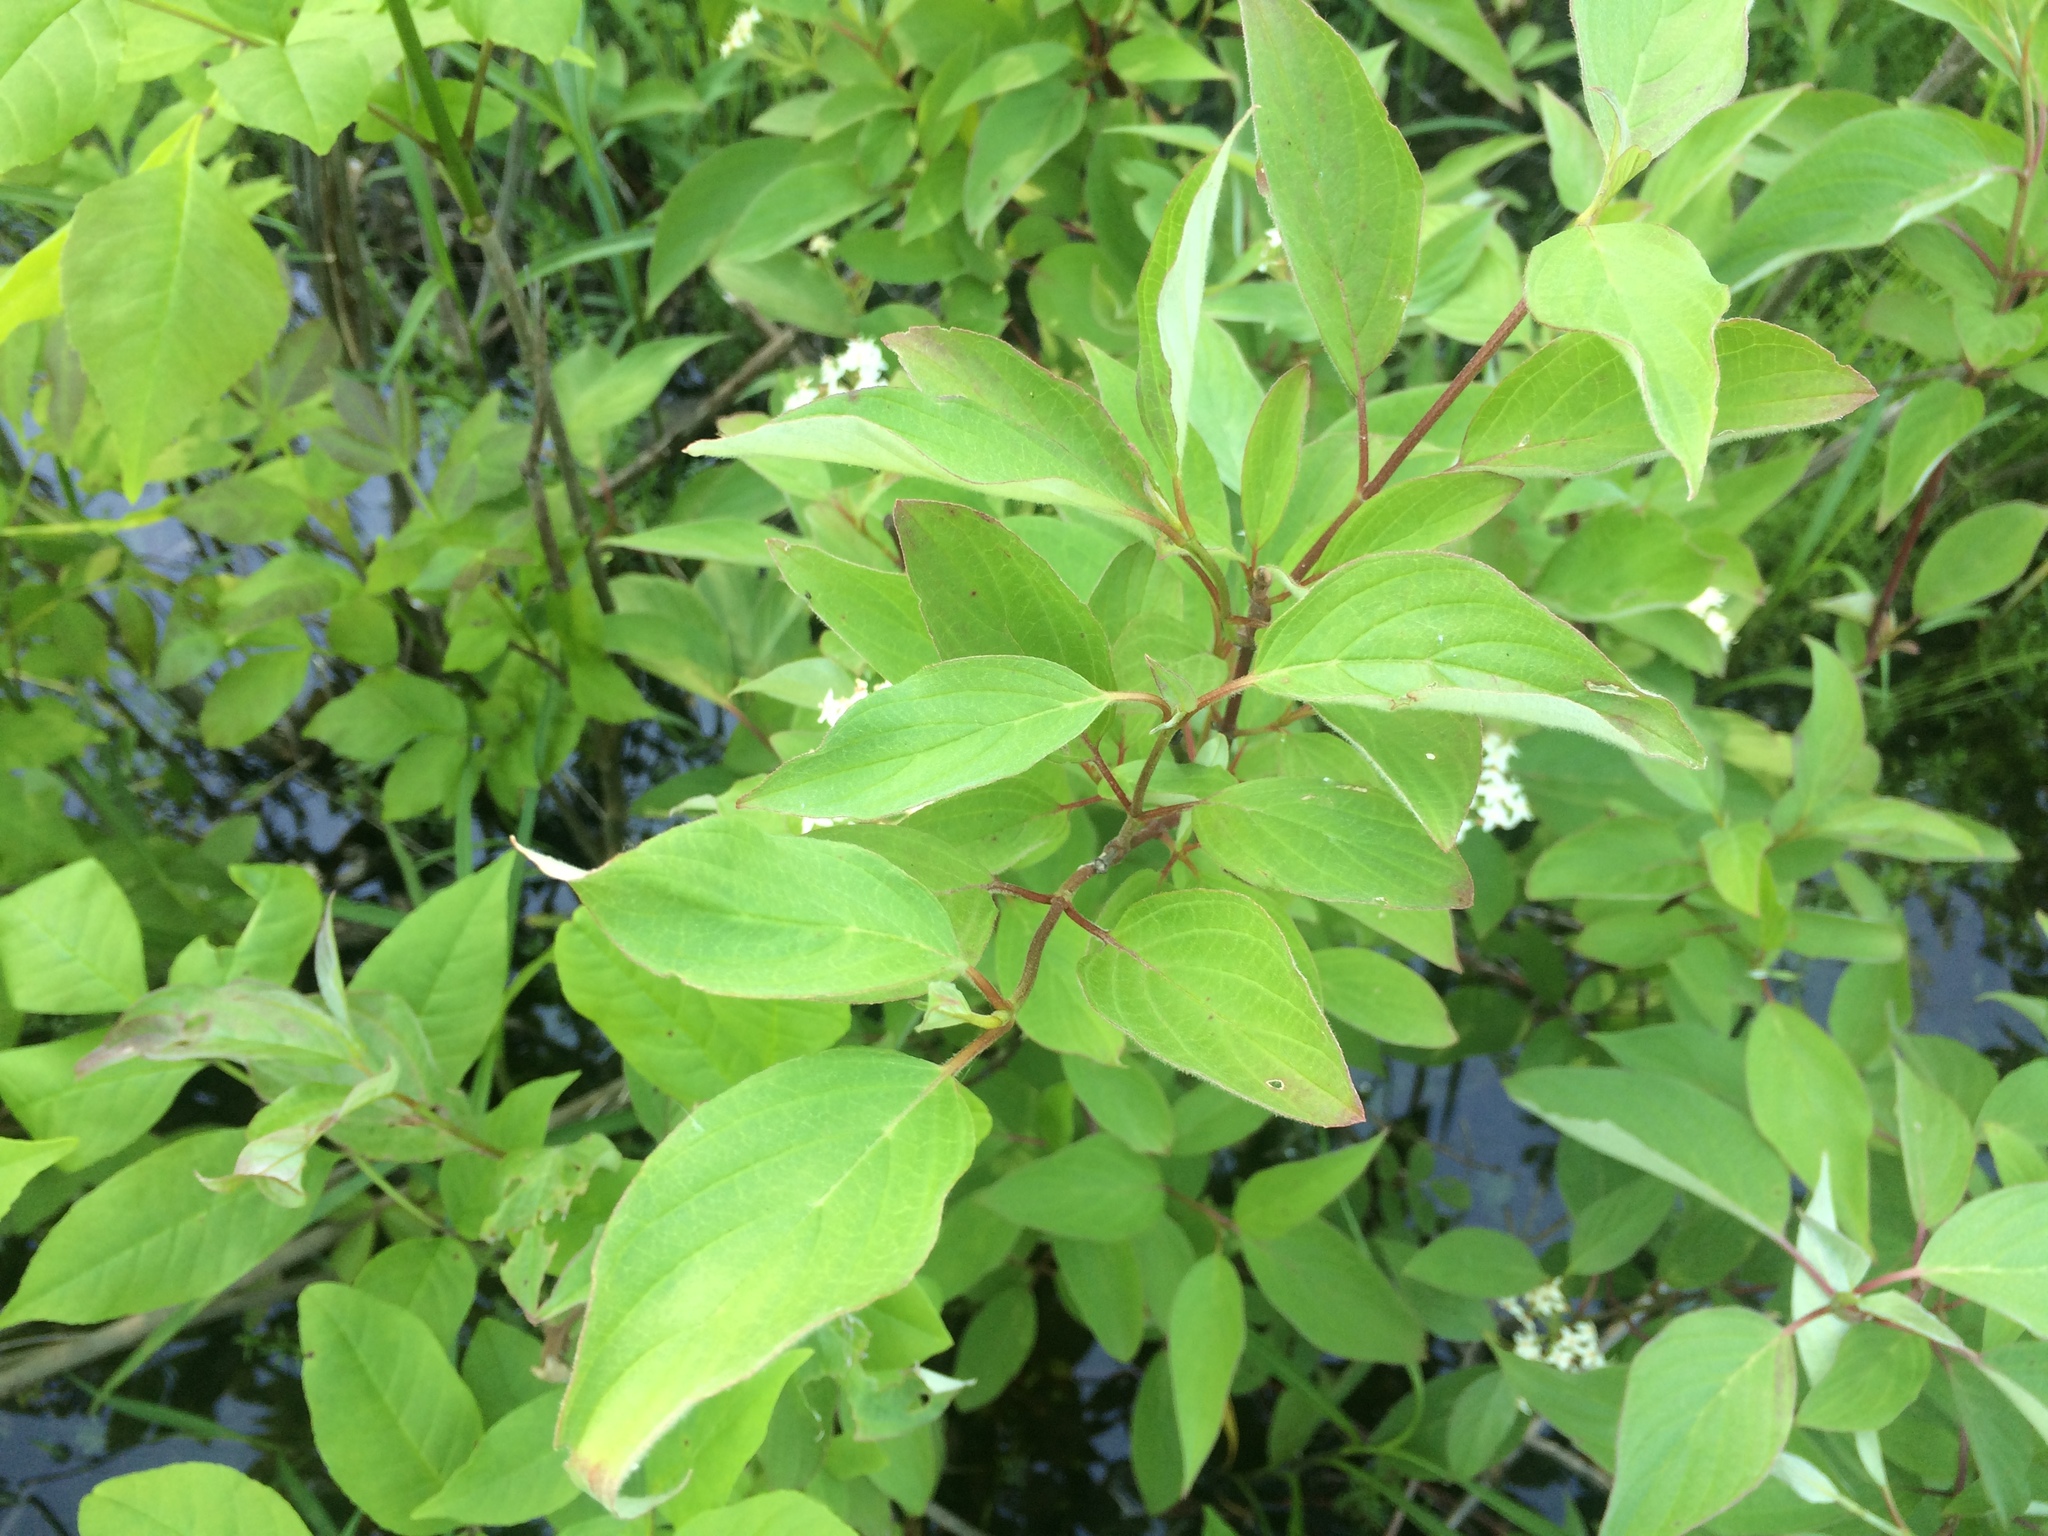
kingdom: Plantae
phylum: Tracheophyta
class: Magnoliopsida
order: Cornales
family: Cornaceae
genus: Cornus
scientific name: Cornus obliqua
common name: Pale dogwood
